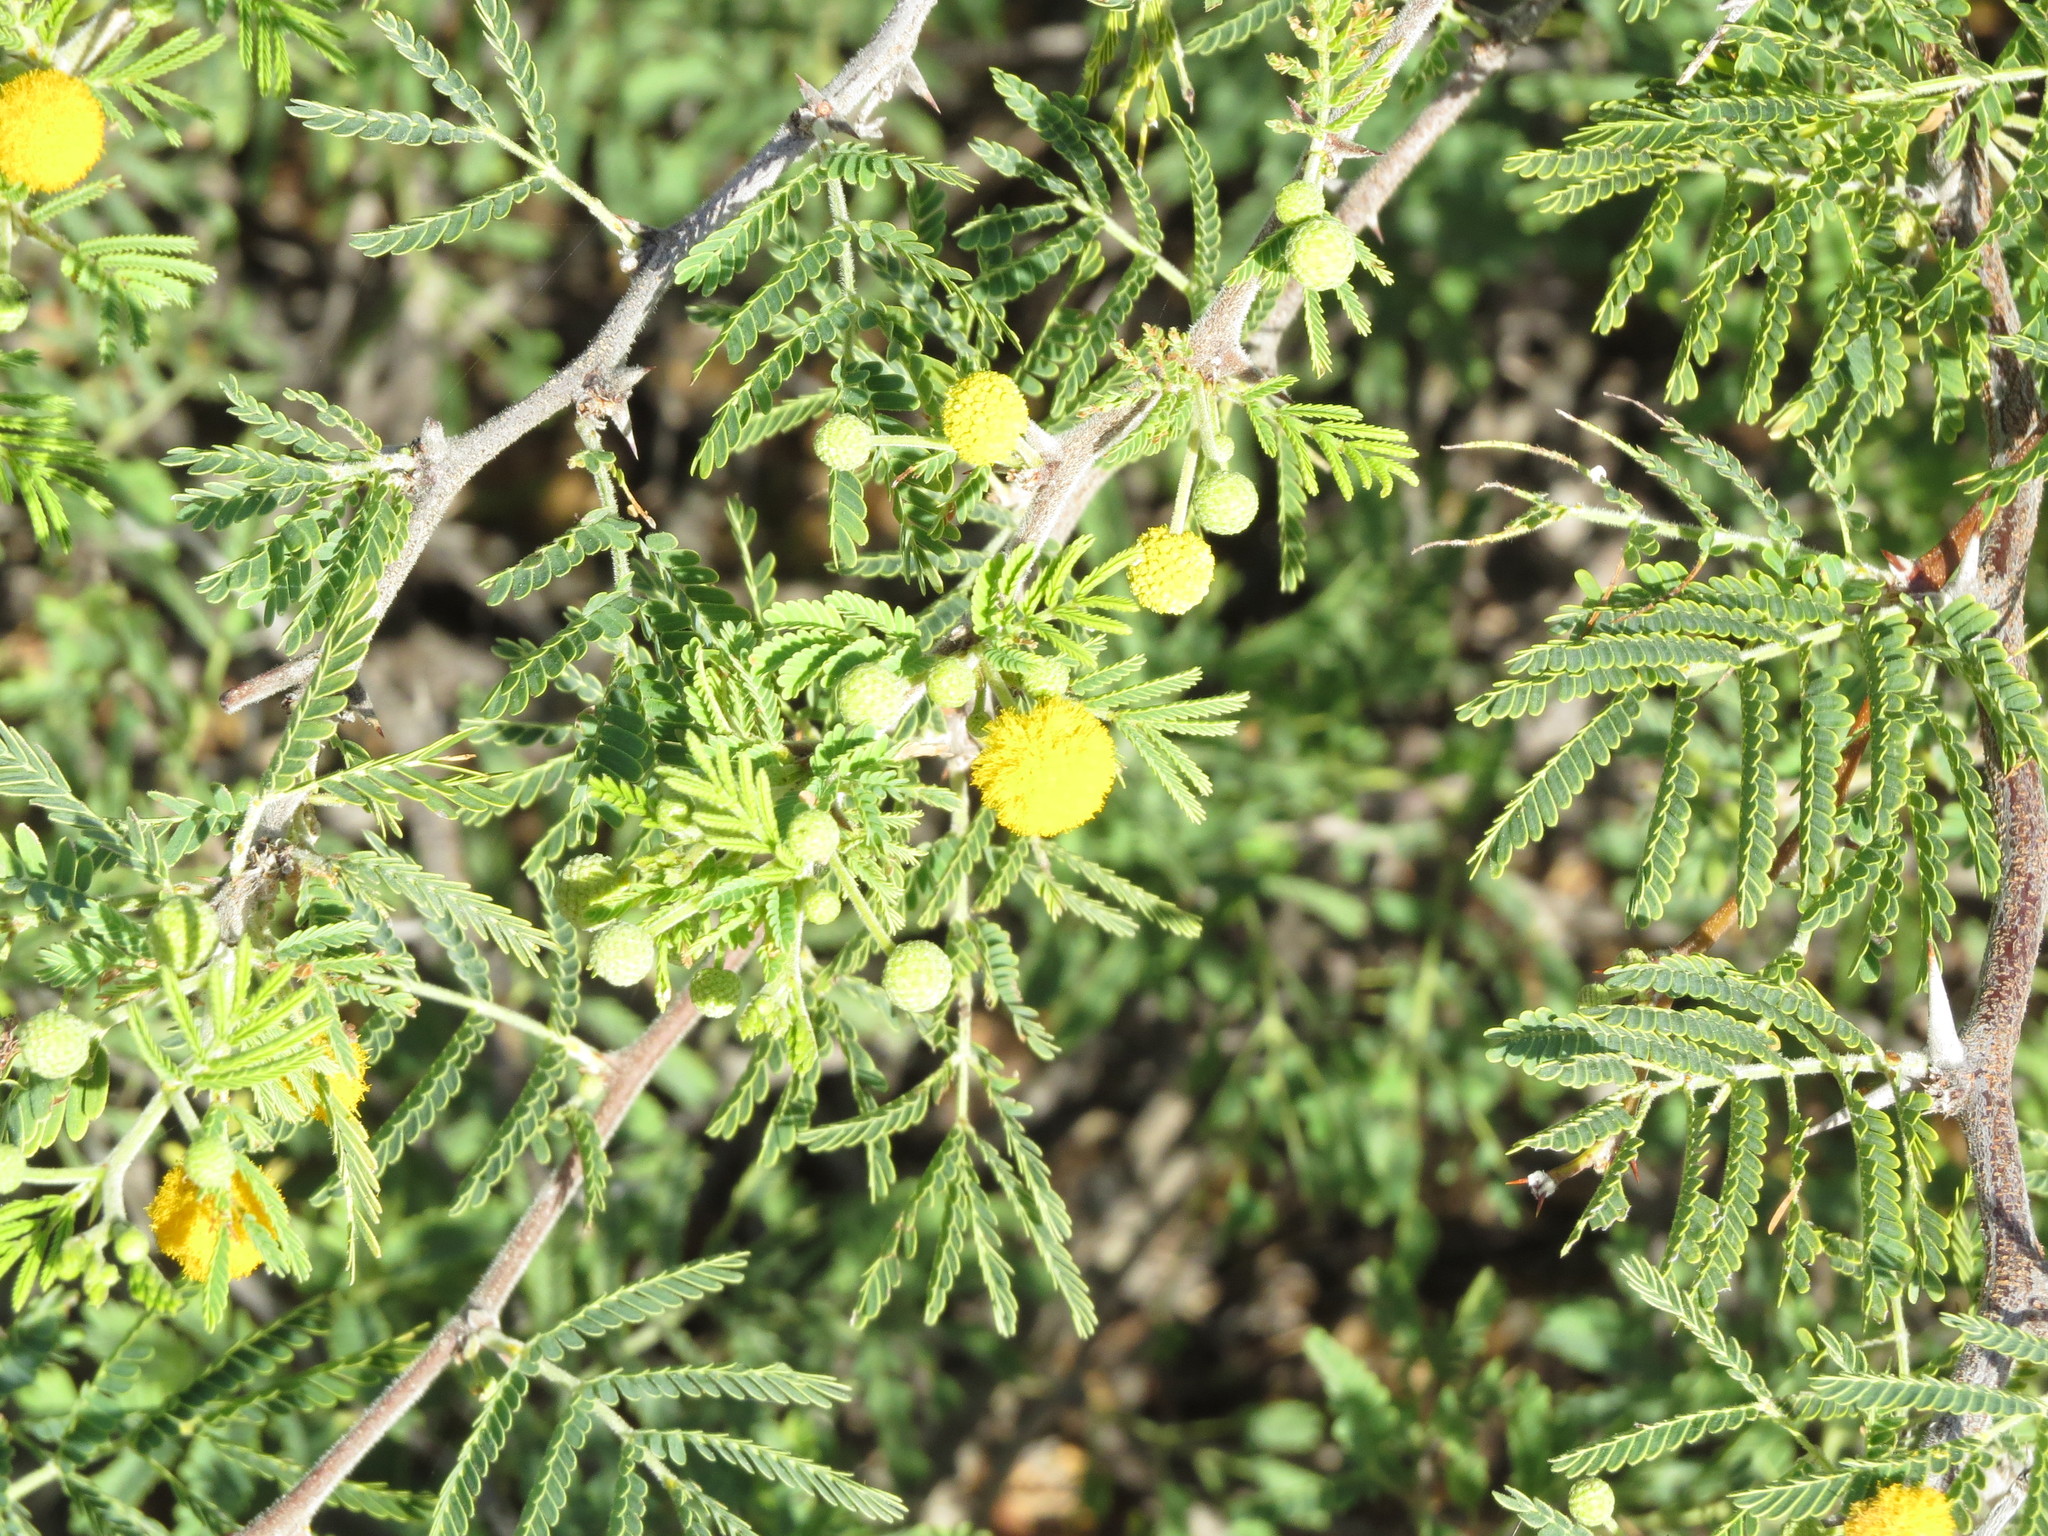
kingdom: Plantae
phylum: Tracheophyta
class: Magnoliopsida
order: Fabales
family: Fabaceae
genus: Vachellia
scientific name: Vachellia farnesiana
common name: Sweet acacia
